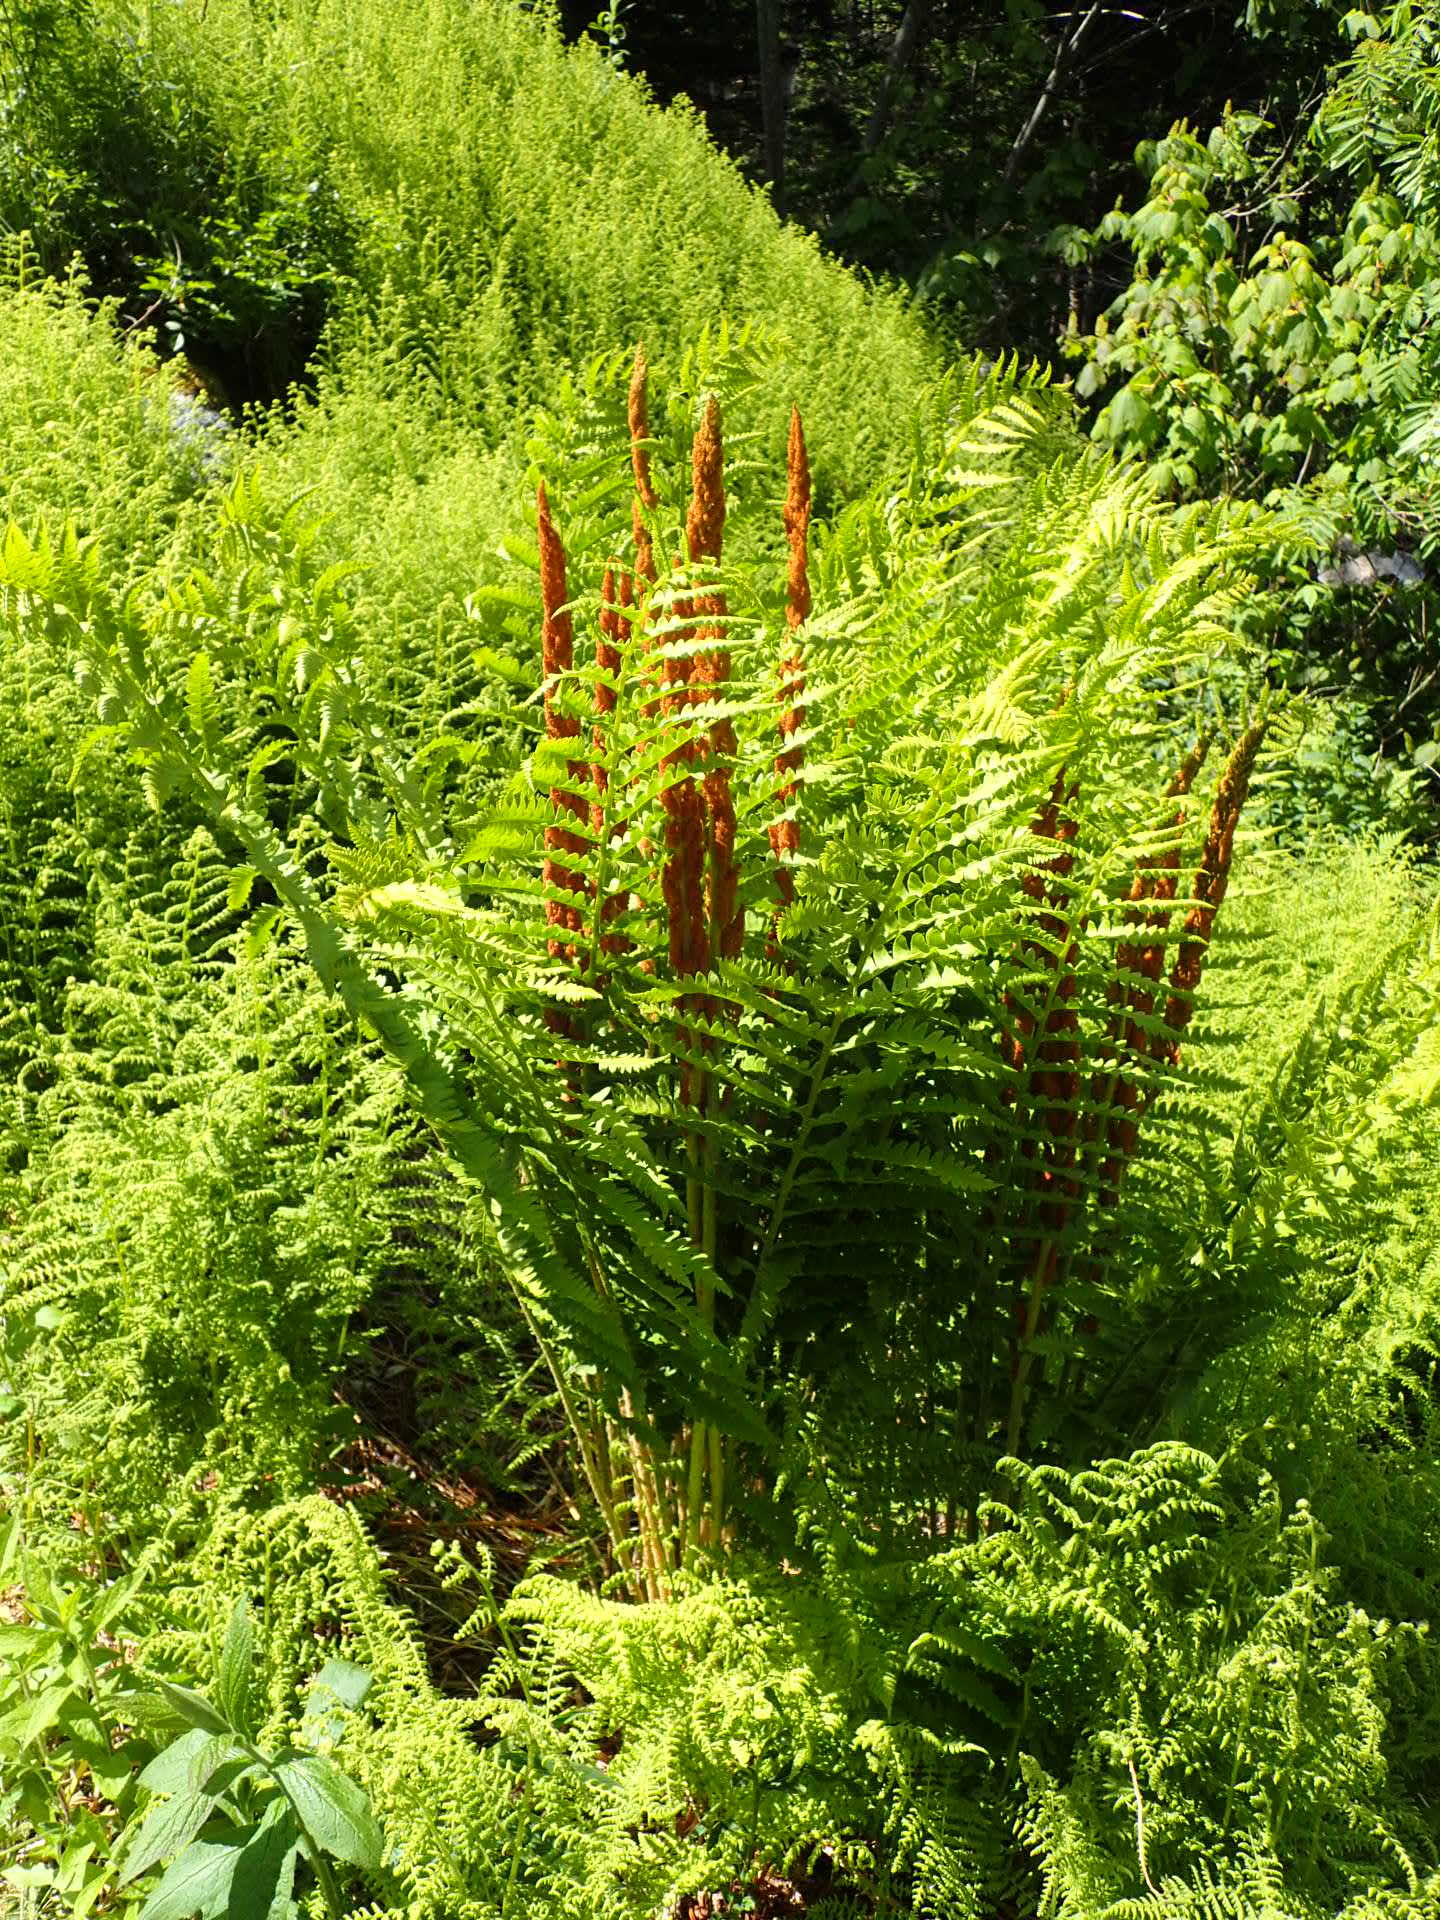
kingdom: Plantae
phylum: Tracheophyta
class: Polypodiopsida
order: Osmundales
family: Osmundaceae
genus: Osmundastrum
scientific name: Osmundastrum cinnamomeum
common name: Cinnamon fern
